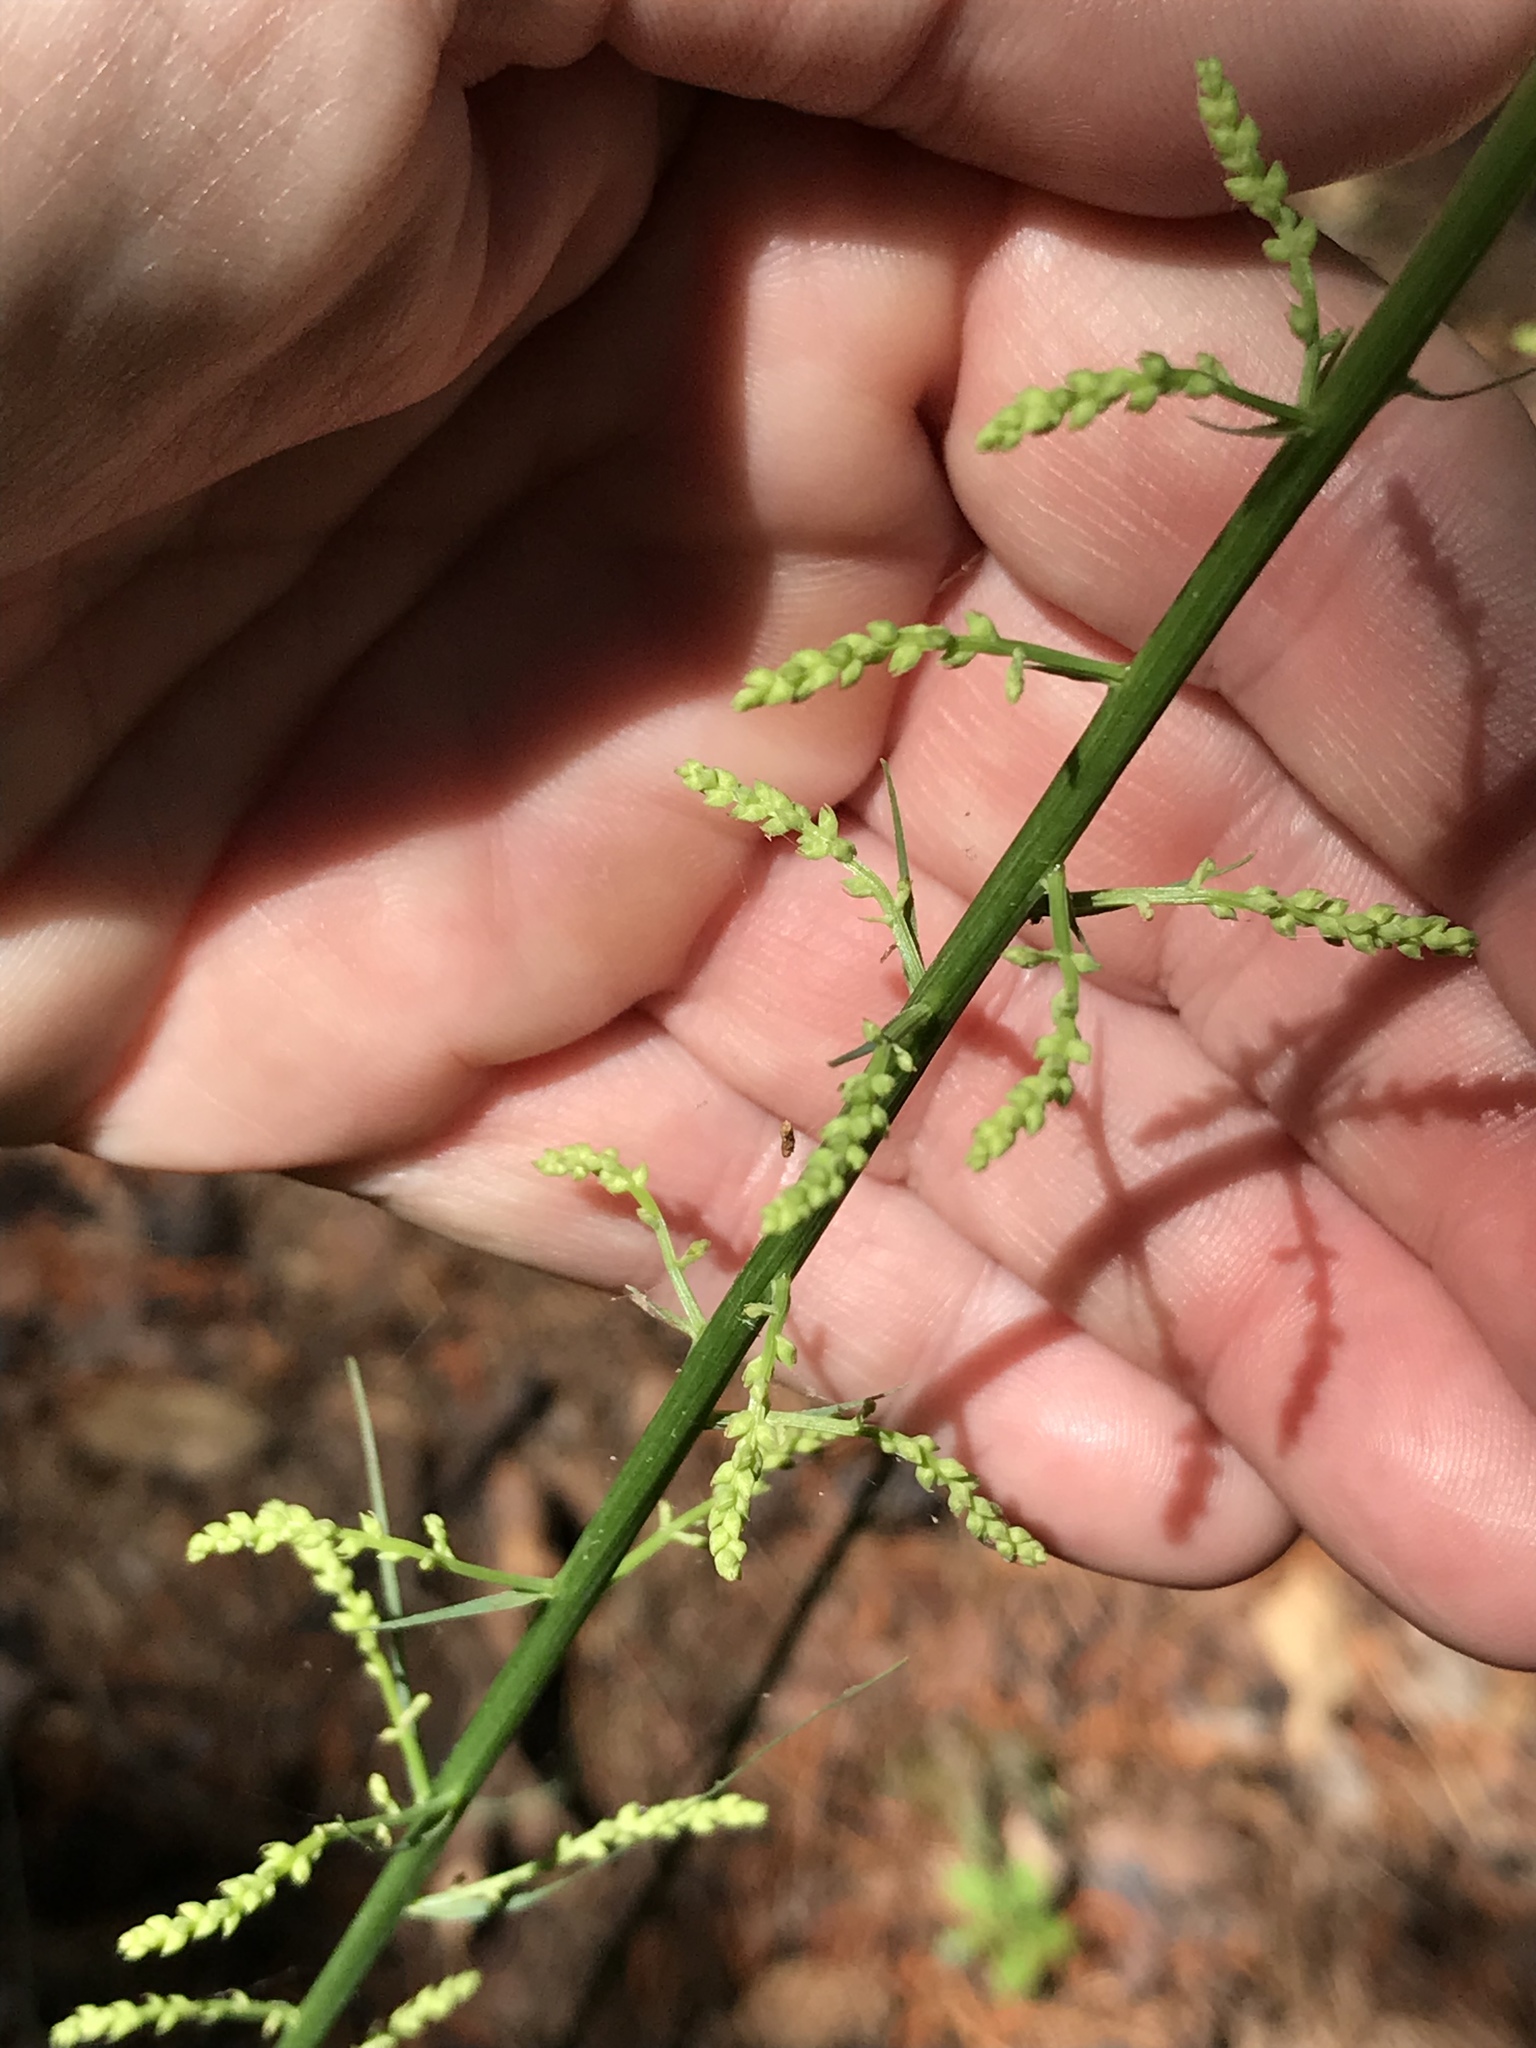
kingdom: Plantae
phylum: Tracheophyta
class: Liliopsida
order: Liliales
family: Melanthiaceae
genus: Stenanthium
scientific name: Stenanthium gramineum
